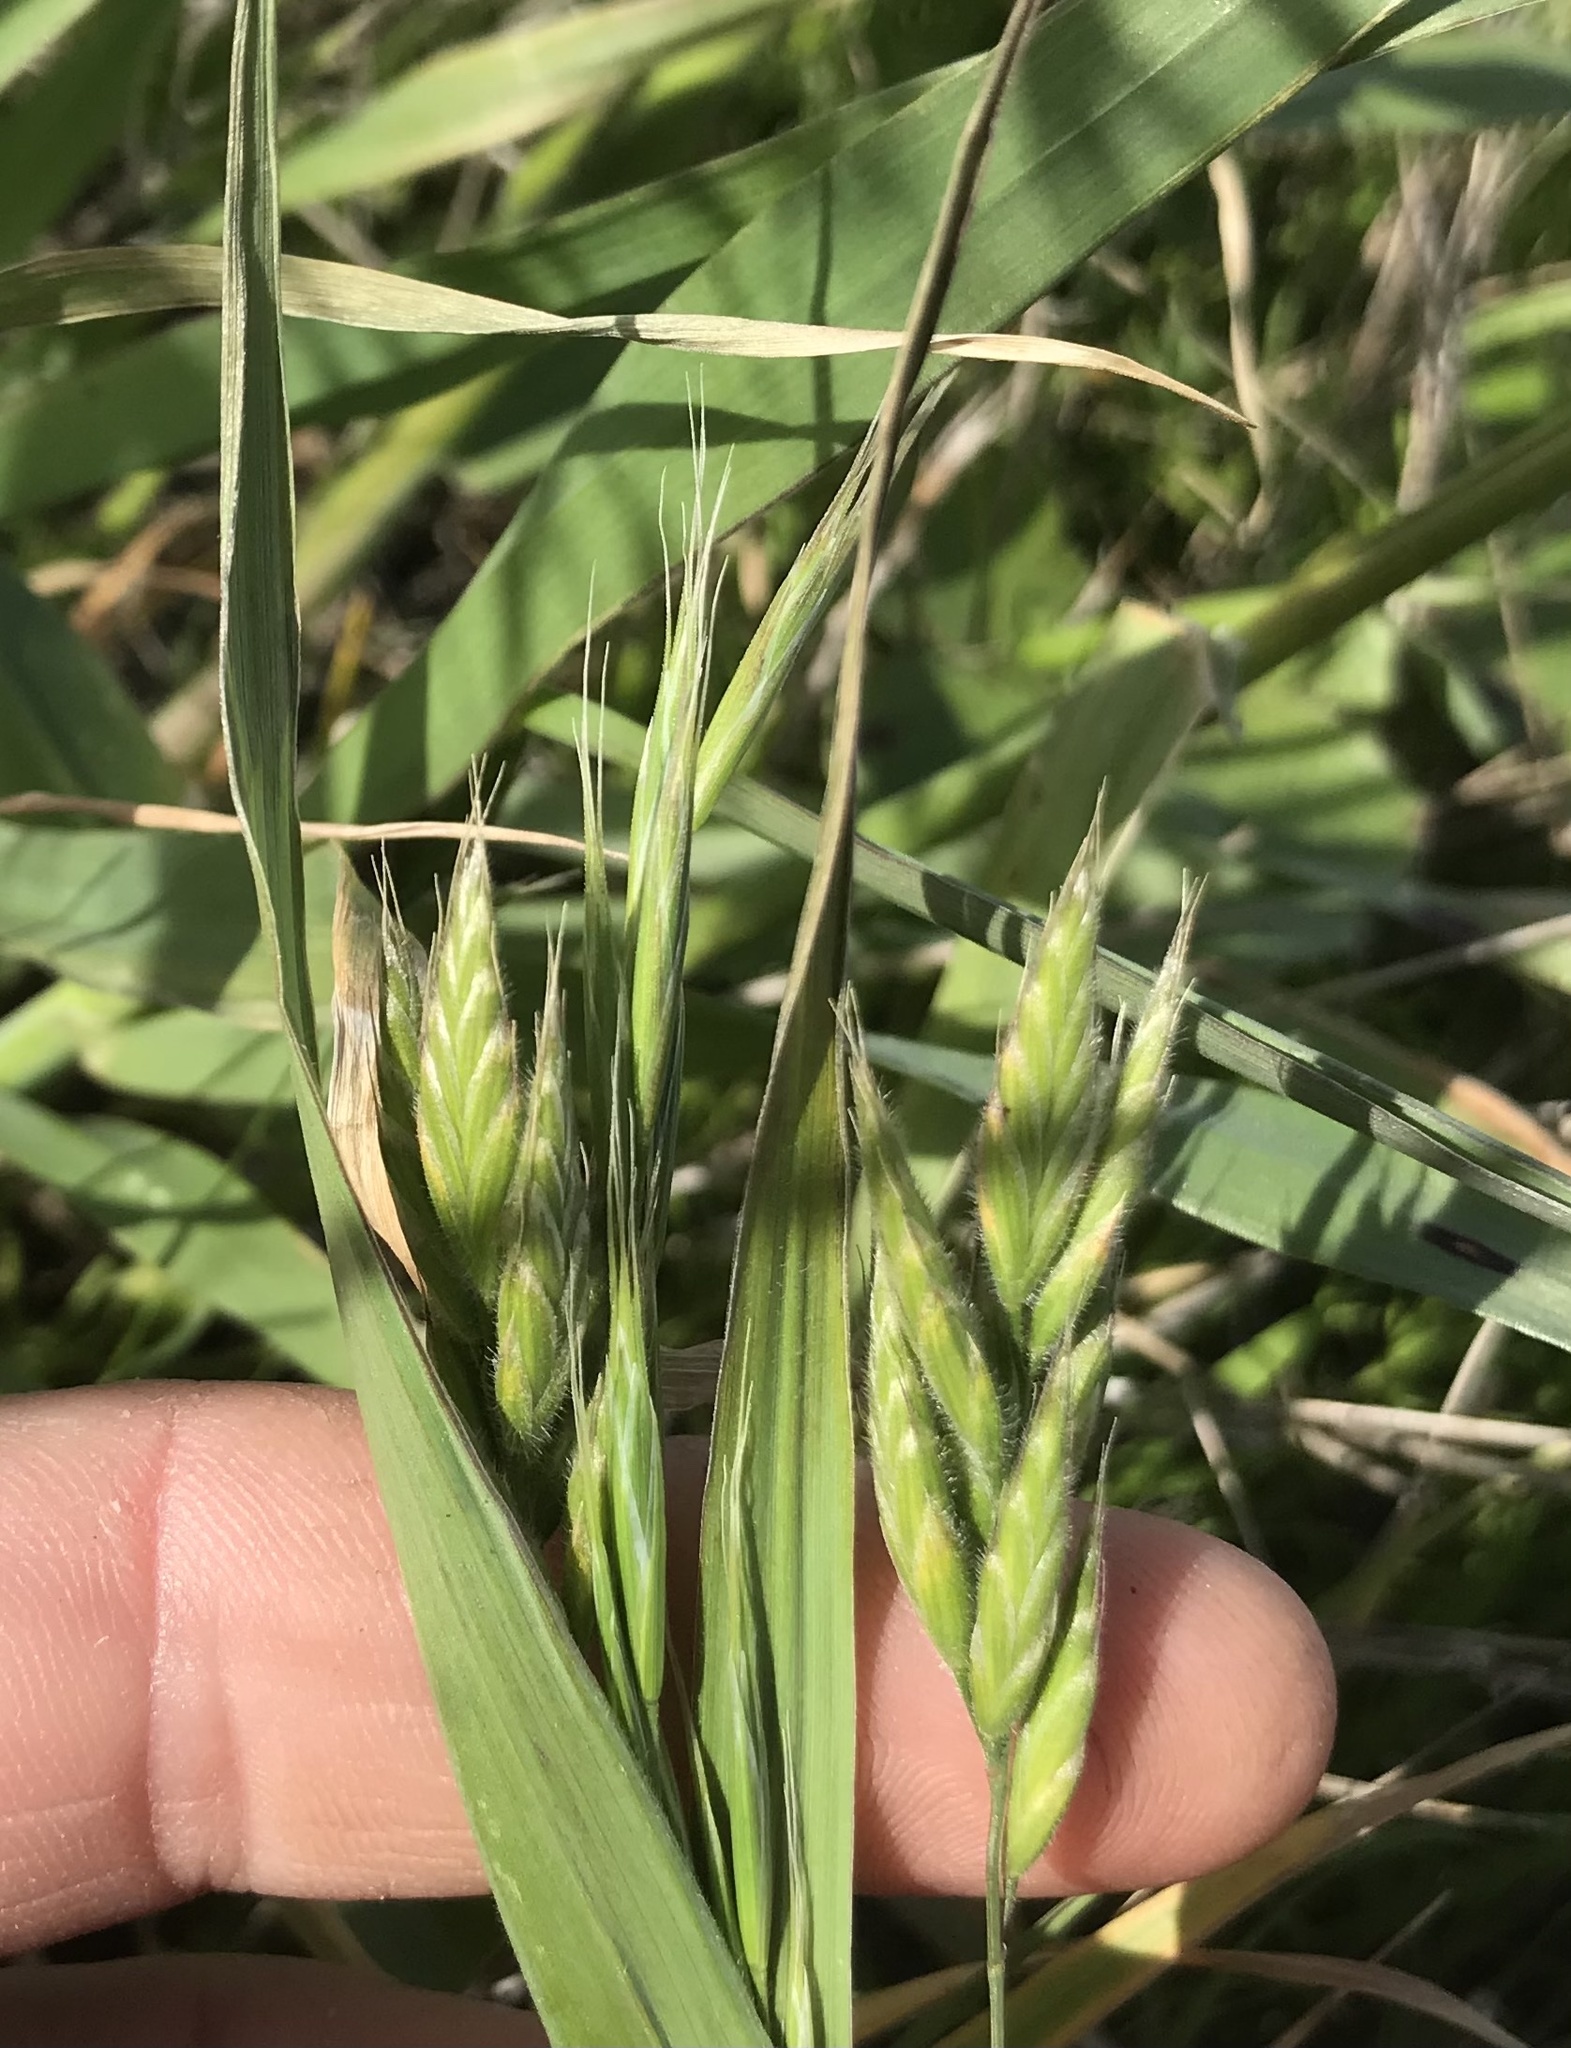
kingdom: Plantae
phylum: Tracheophyta
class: Liliopsida
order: Poales
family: Poaceae
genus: Bromus
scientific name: Bromus hordeaceus
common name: Soft brome
